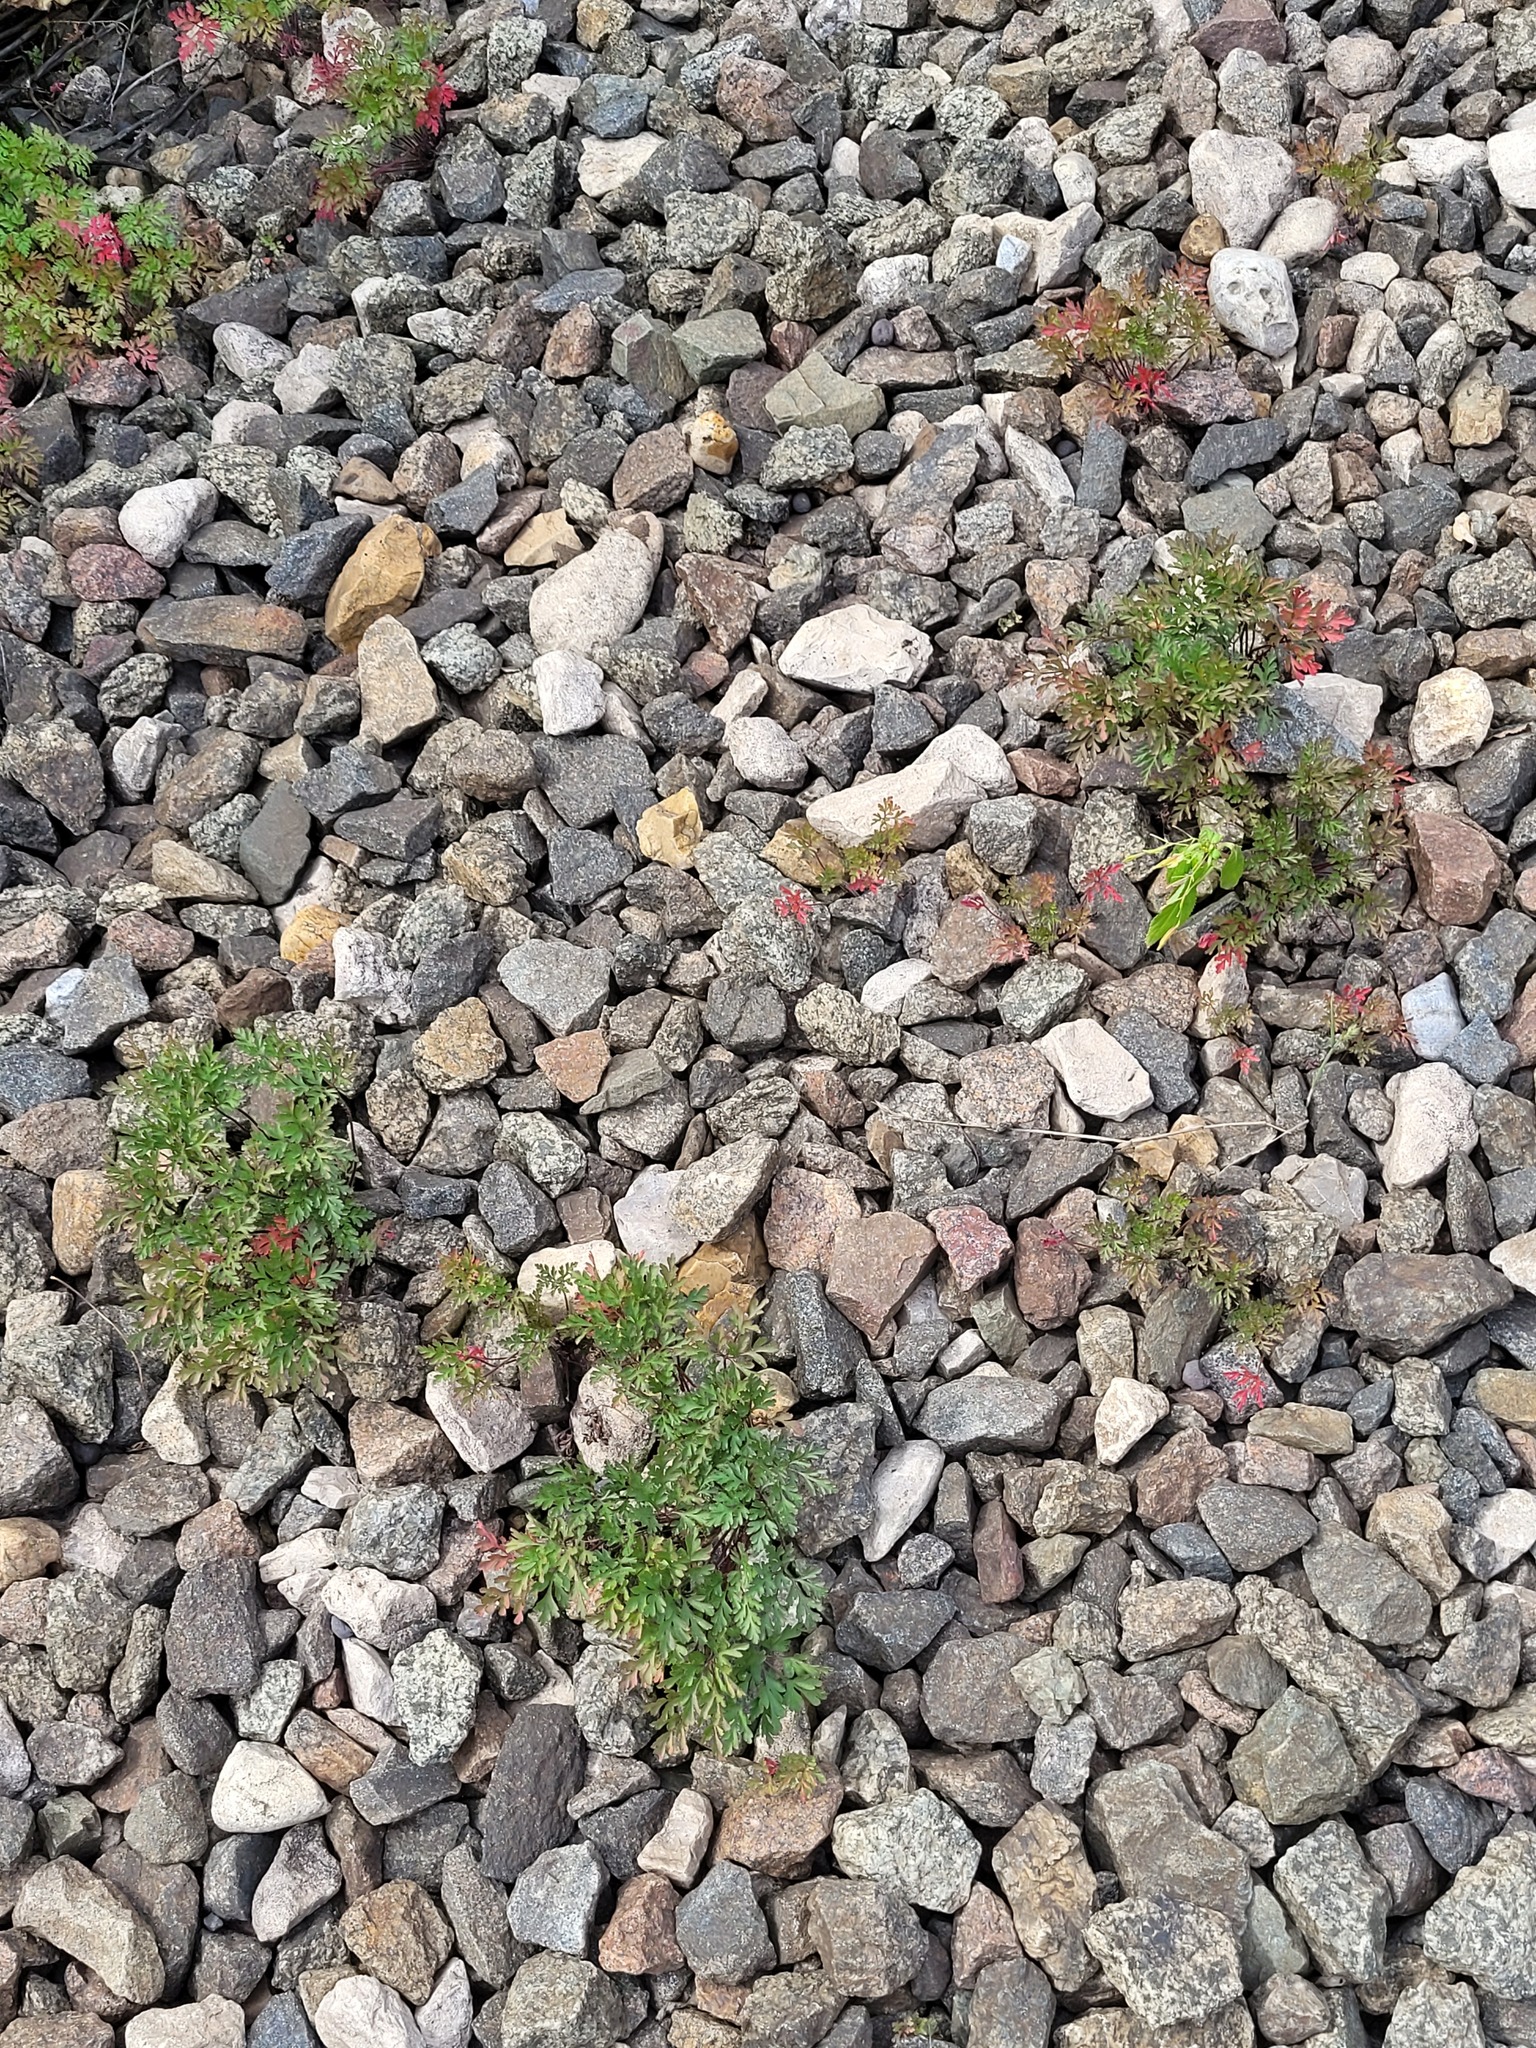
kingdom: Plantae
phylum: Tracheophyta
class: Magnoliopsida
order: Geraniales
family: Geraniaceae
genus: Geranium
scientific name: Geranium robertianum
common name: Herb-robert
